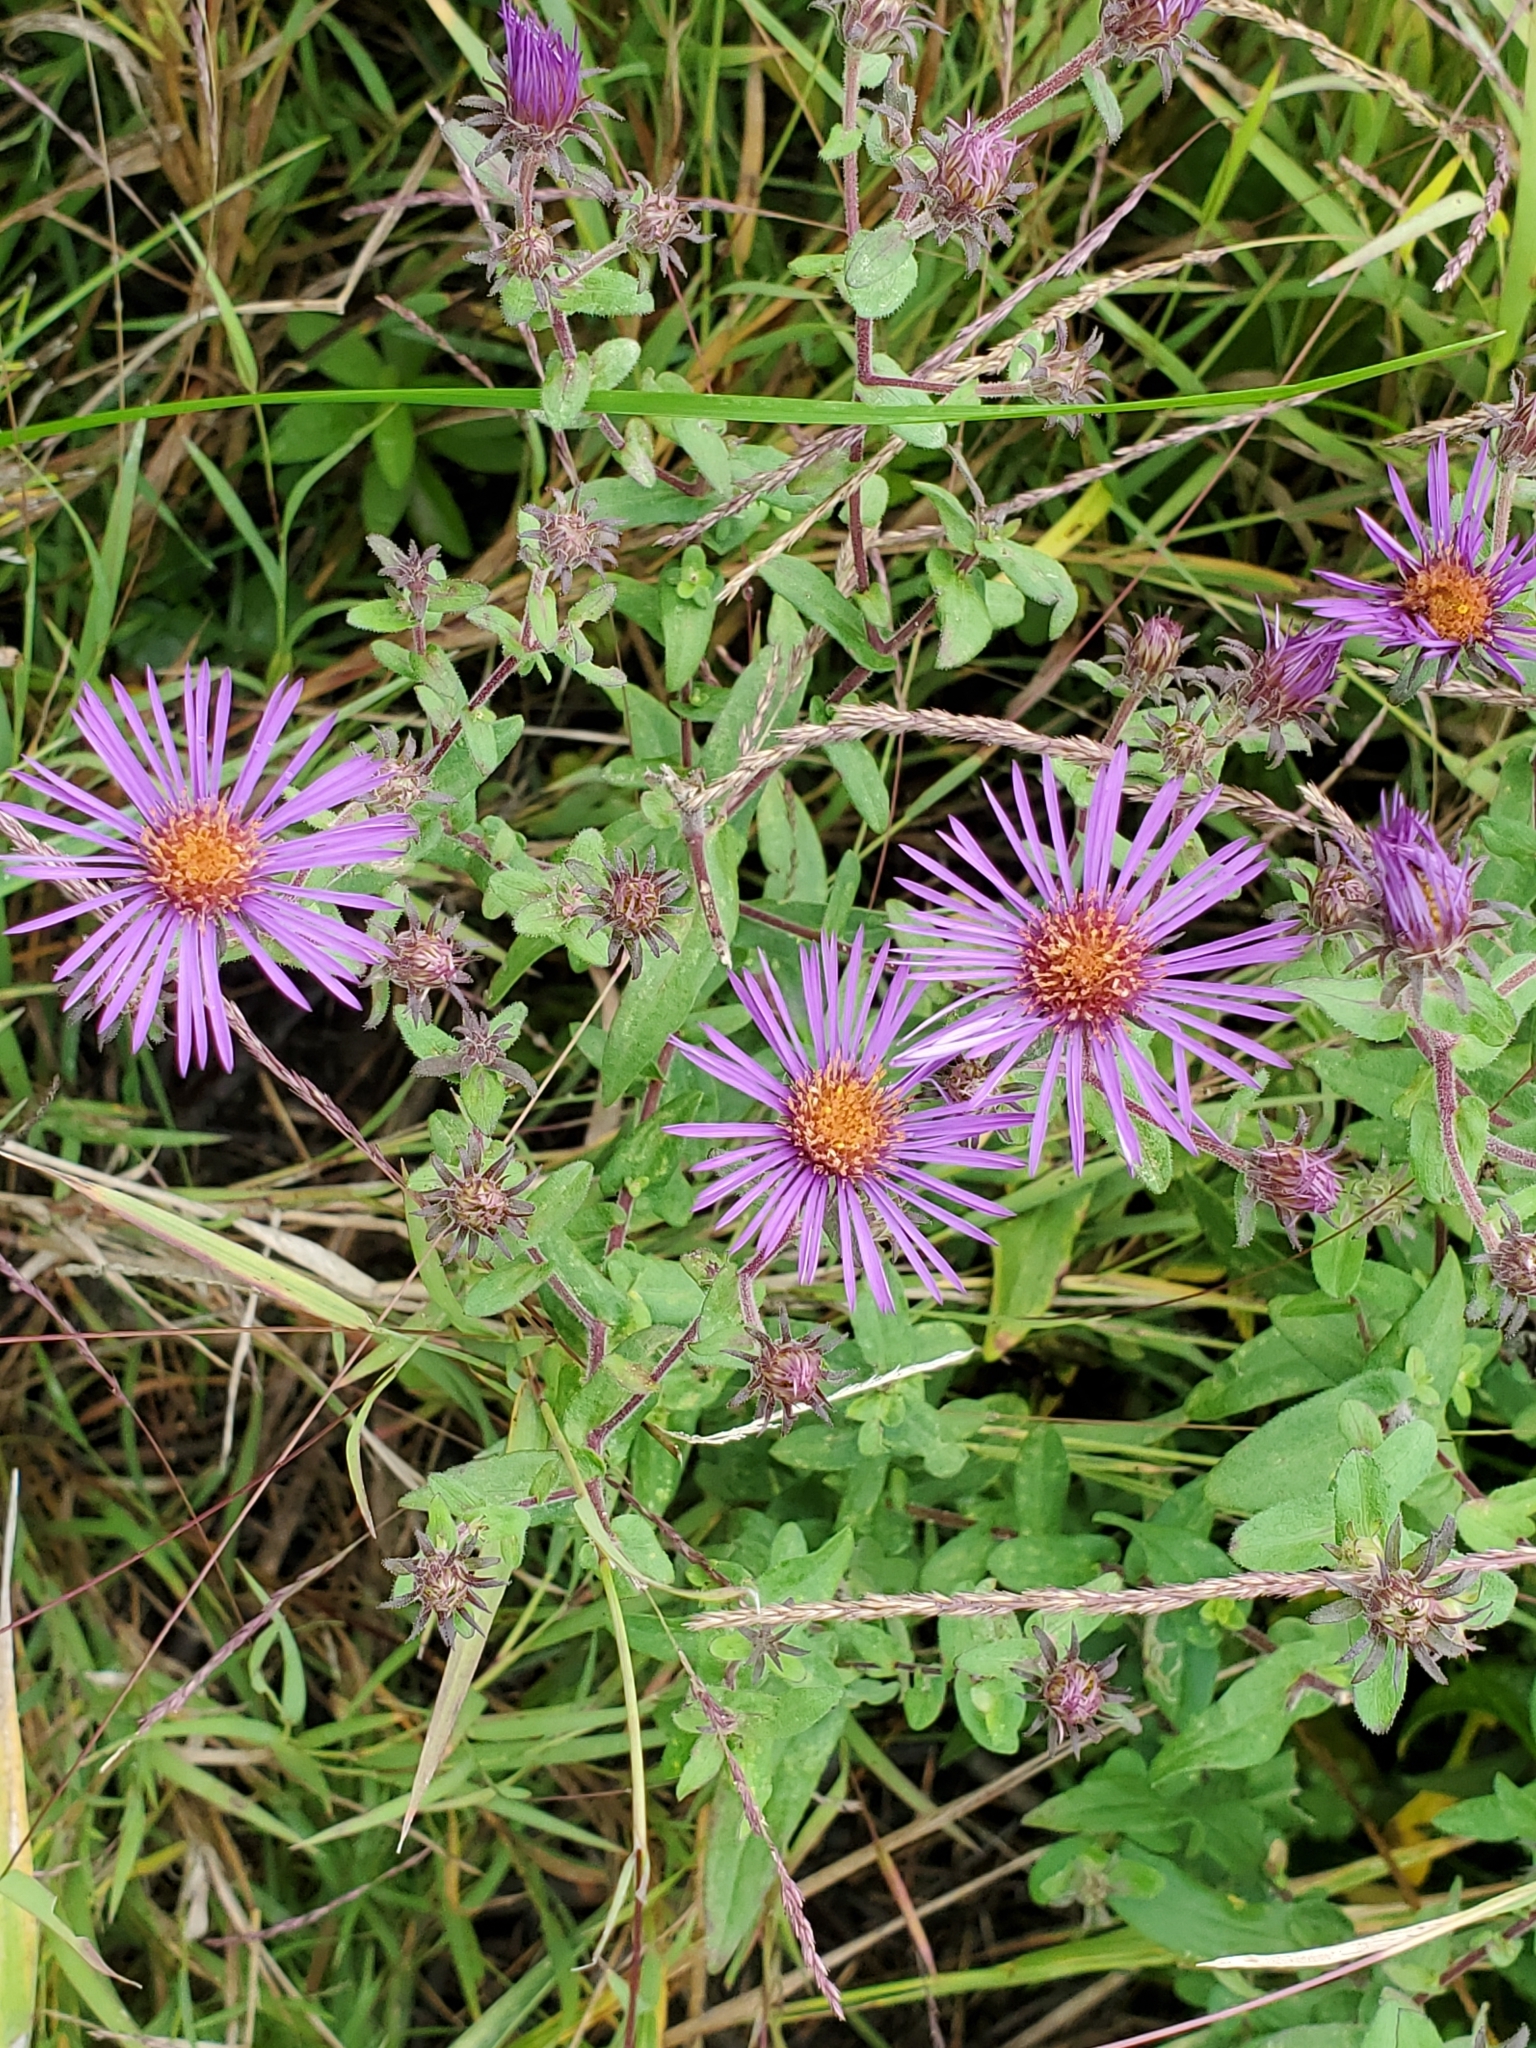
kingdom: Plantae
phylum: Tracheophyta
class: Magnoliopsida
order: Asterales
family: Asteraceae
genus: Symphyotrichum
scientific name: Symphyotrichum novae-angliae
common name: Michaelmas daisy
